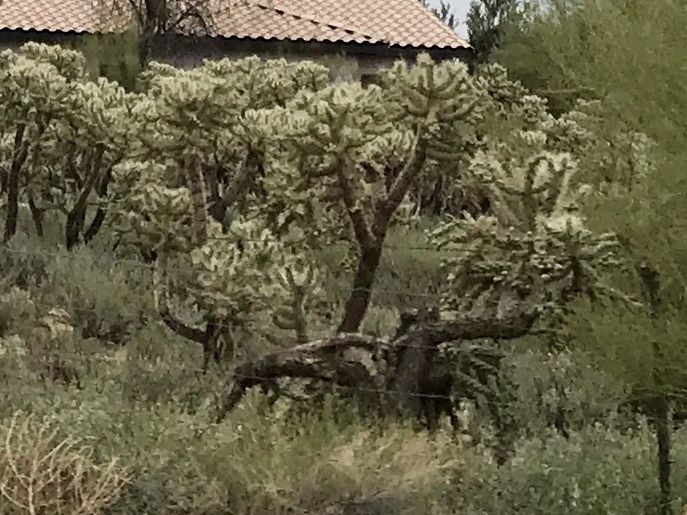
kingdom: Plantae
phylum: Tracheophyta
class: Magnoliopsida
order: Caryophyllales
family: Cactaceae
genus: Cylindropuntia
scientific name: Cylindropuntia fulgida
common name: Jumping cholla
